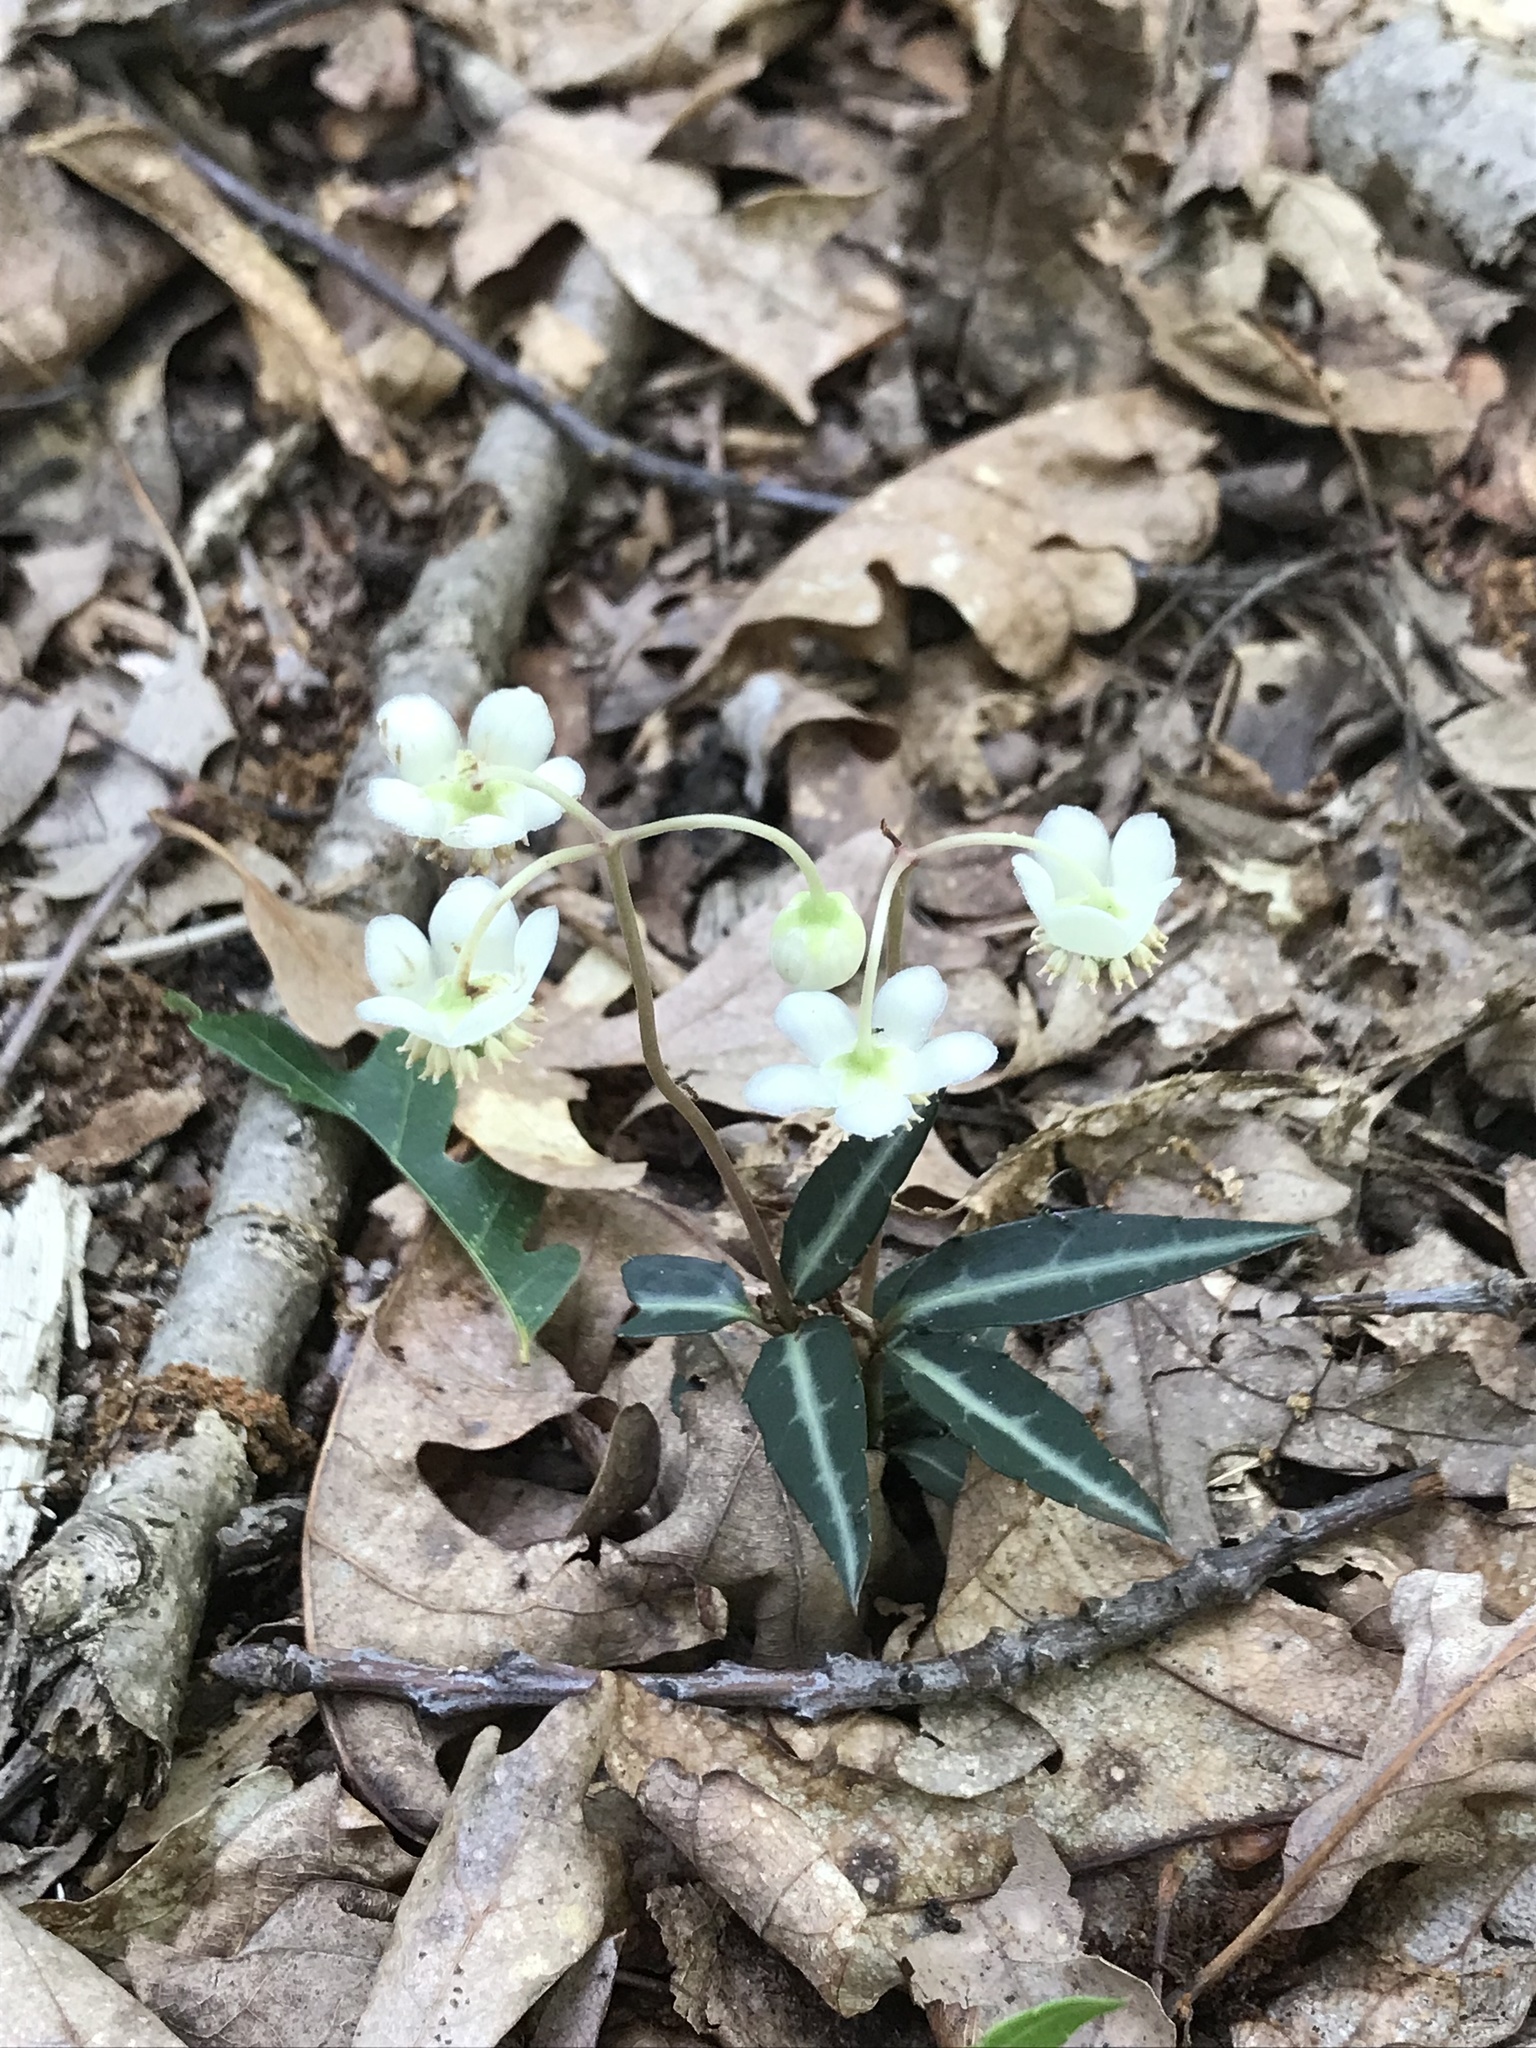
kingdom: Plantae
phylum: Tracheophyta
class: Magnoliopsida
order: Ericales
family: Ericaceae
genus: Chimaphila
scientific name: Chimaphila maculata
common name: Spotted pipsissewa
